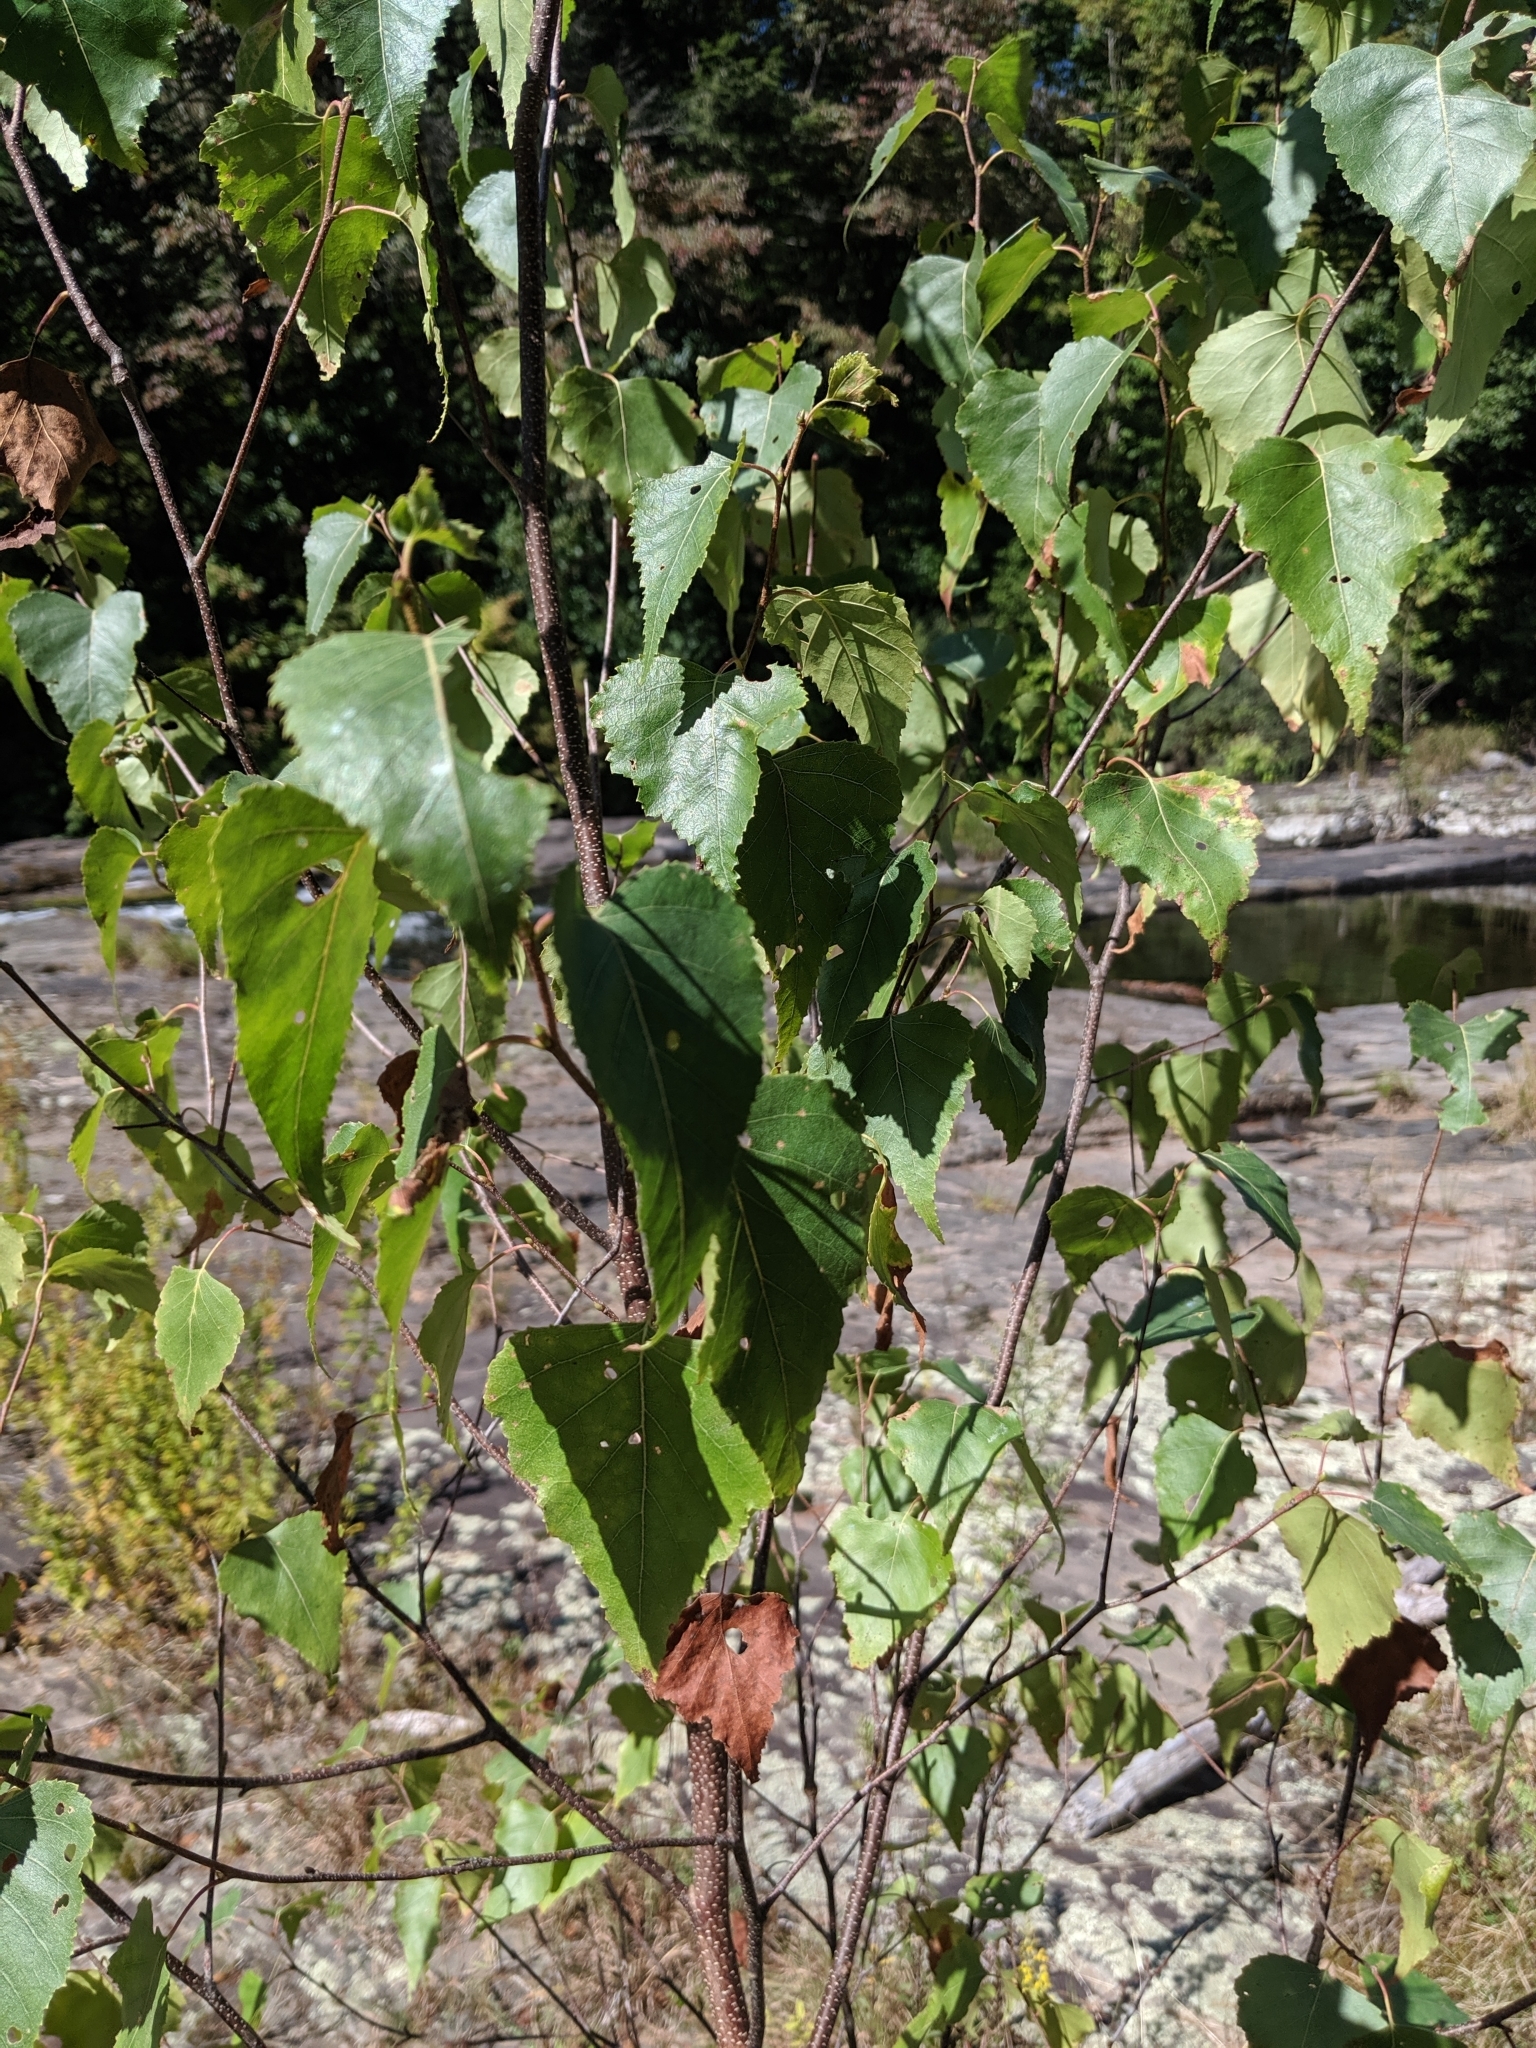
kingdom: Plantae
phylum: Tracheophyta
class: Magnoliopsida
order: Fagales
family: Betulaceae
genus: Betula
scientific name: Betula populifolia
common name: Fire birch
